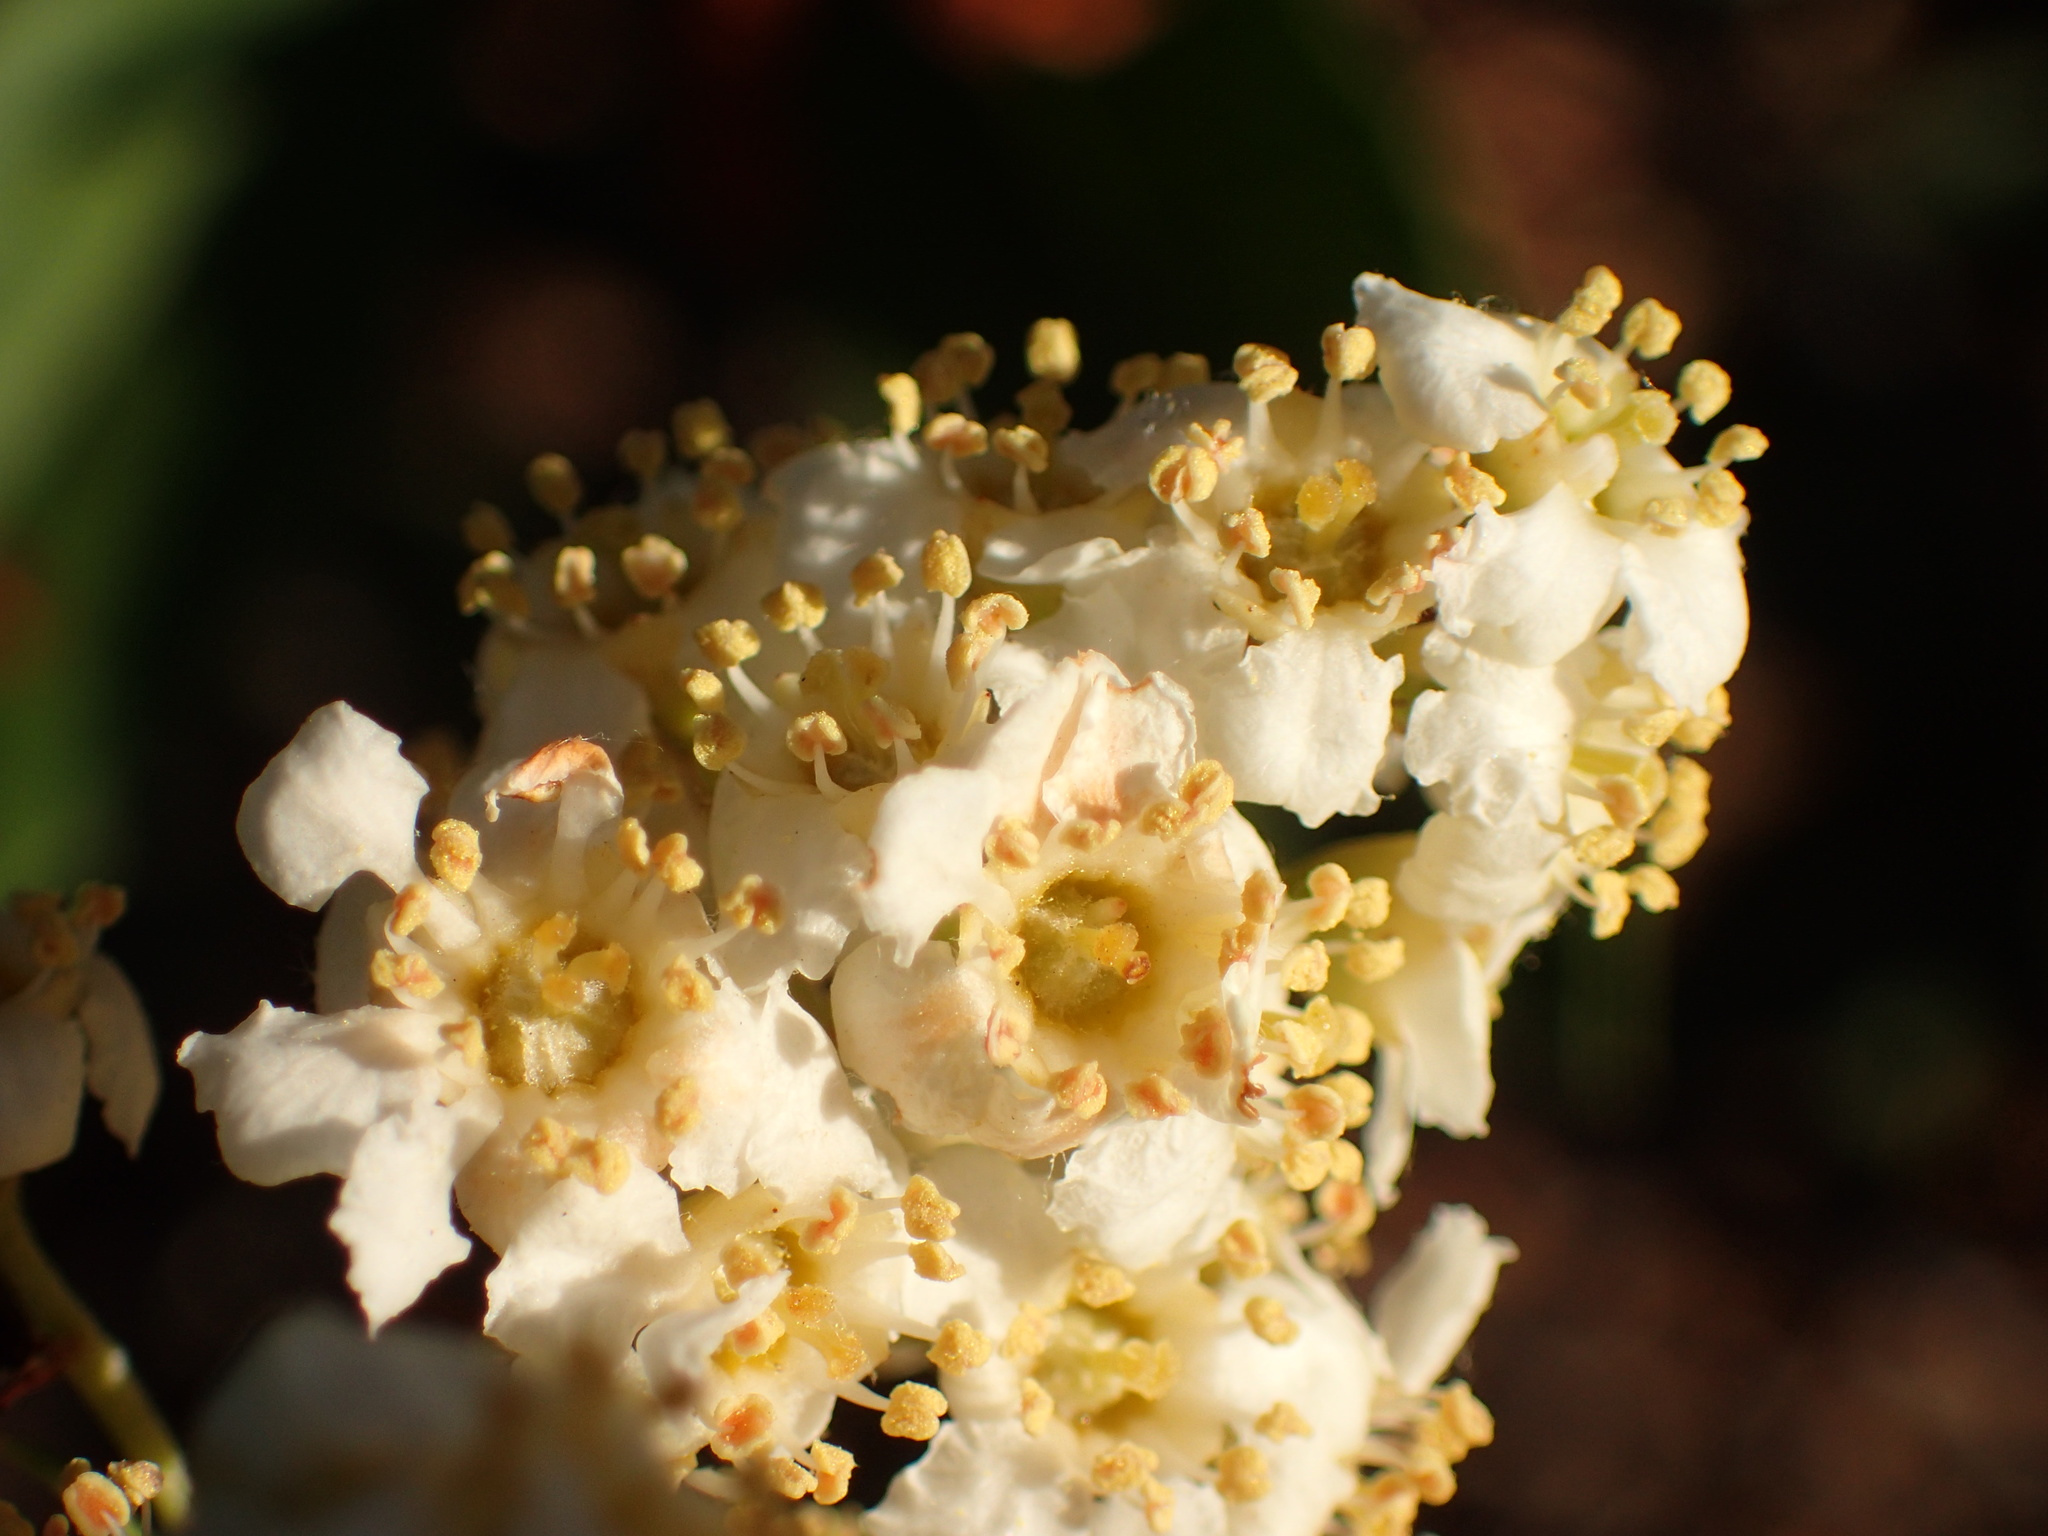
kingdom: Plantae
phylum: Tracheophyta
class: Magnoliopsida
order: Rosales
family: Rosaceae
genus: Heteromeles
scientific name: Heteromeles arbutifolia
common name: California-holly
